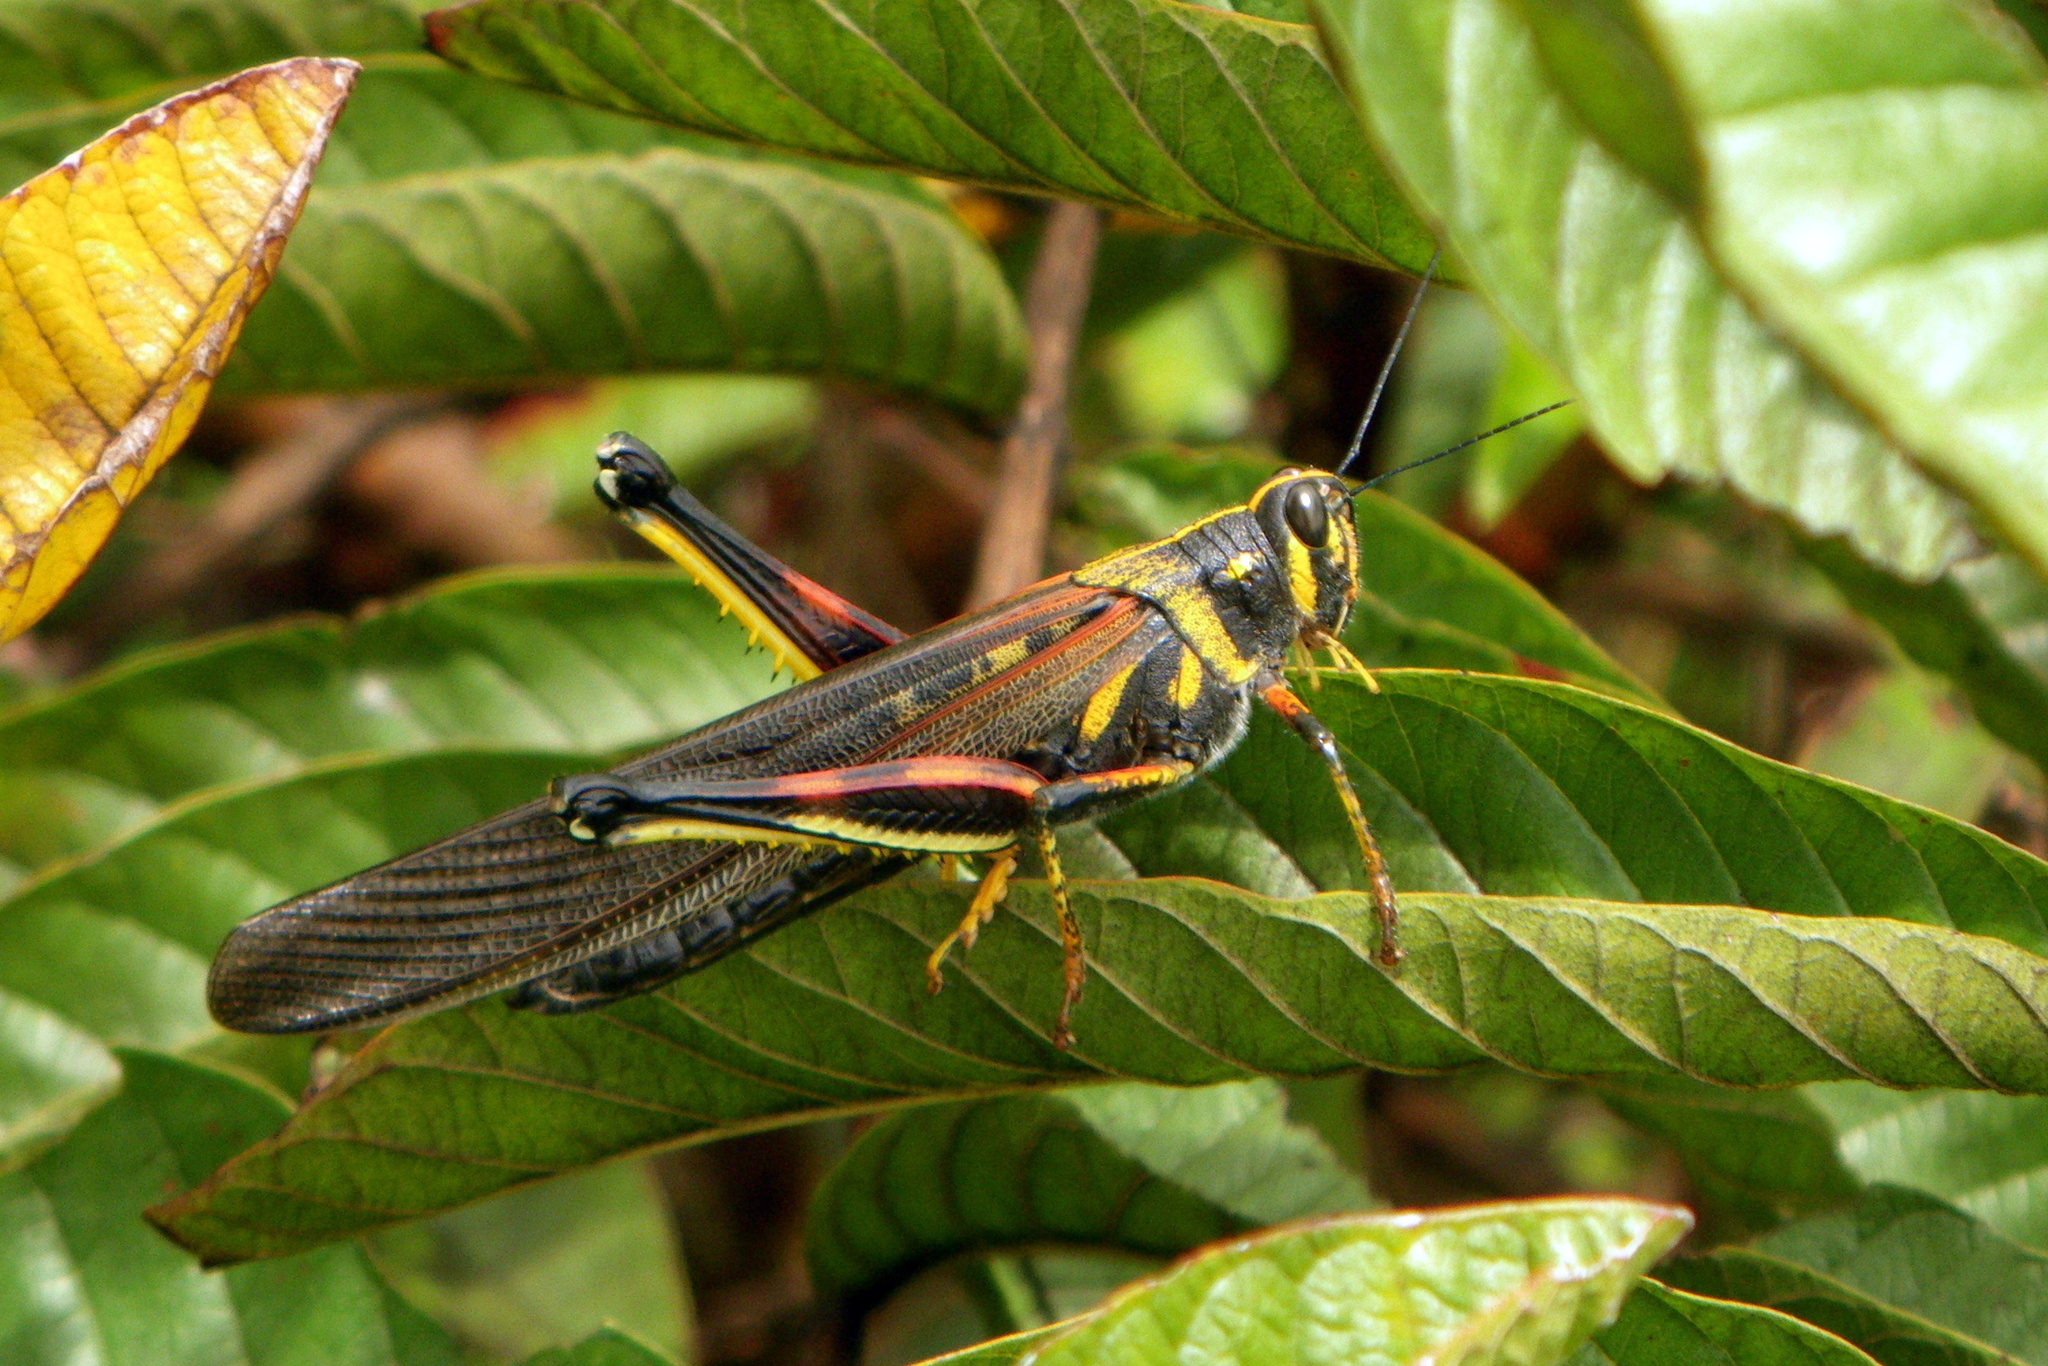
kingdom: Animalia
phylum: Arthropoda
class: Insecta
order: Orthoptera
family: Acrididae
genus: Schistocerca
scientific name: Schistocerca melanocera
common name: Large painted locust
